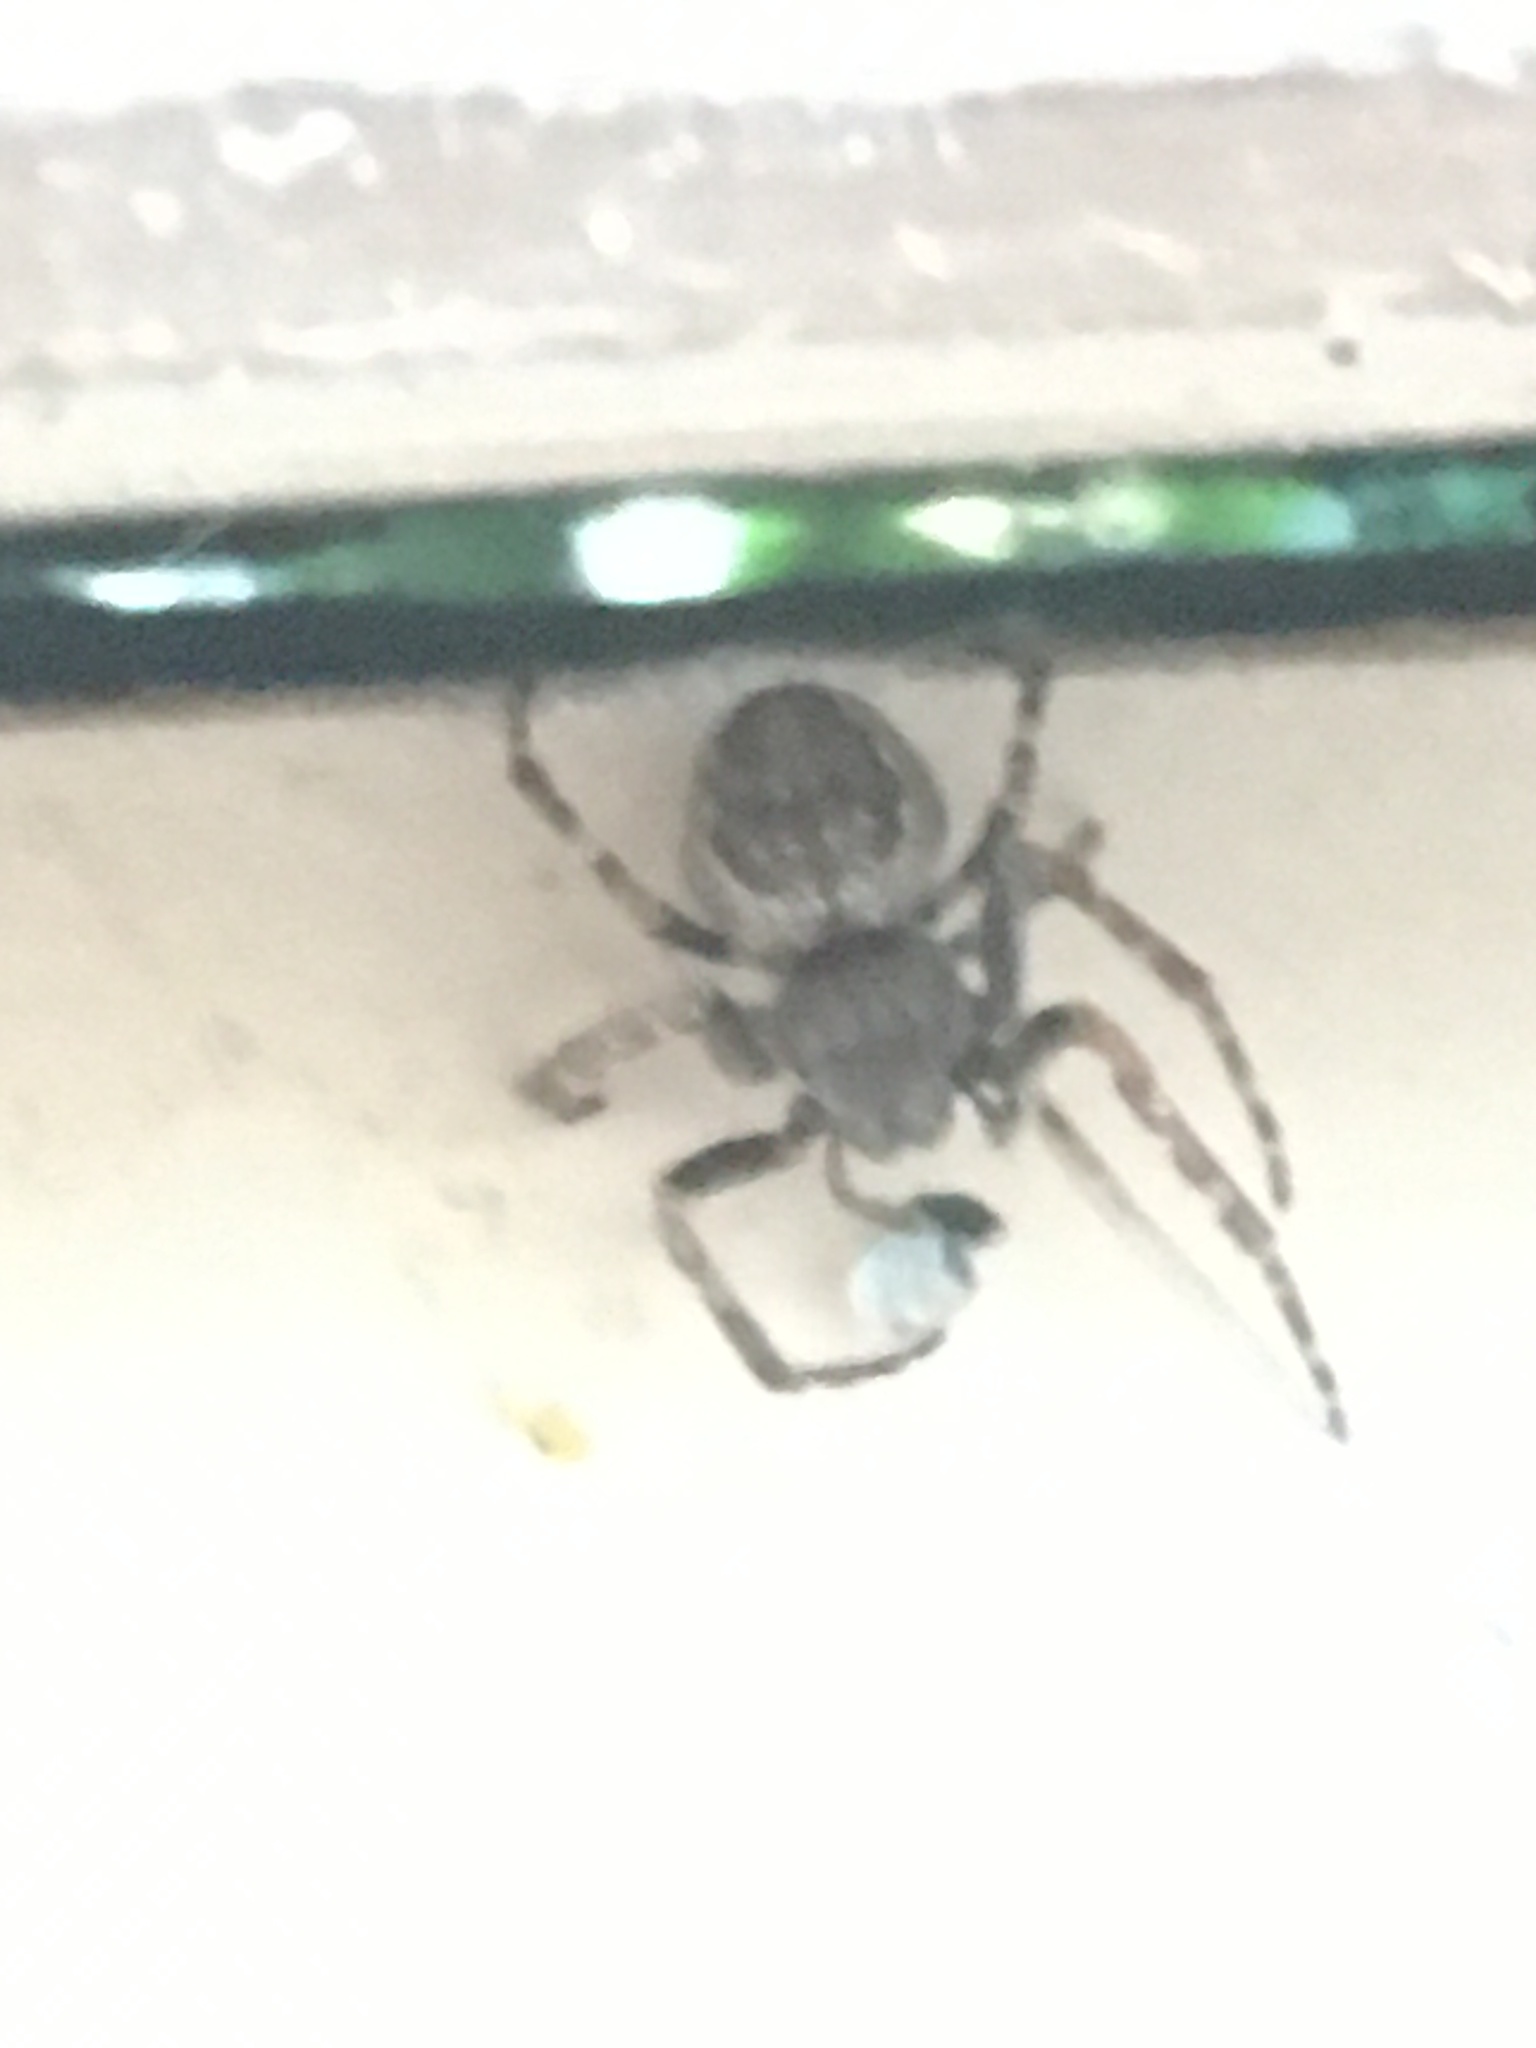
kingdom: Animalia
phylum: Arthropoda
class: Arachnida
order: Araneae
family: Araneidae
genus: Nuctenea
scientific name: Nuctenea umbratica
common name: Toad spider
